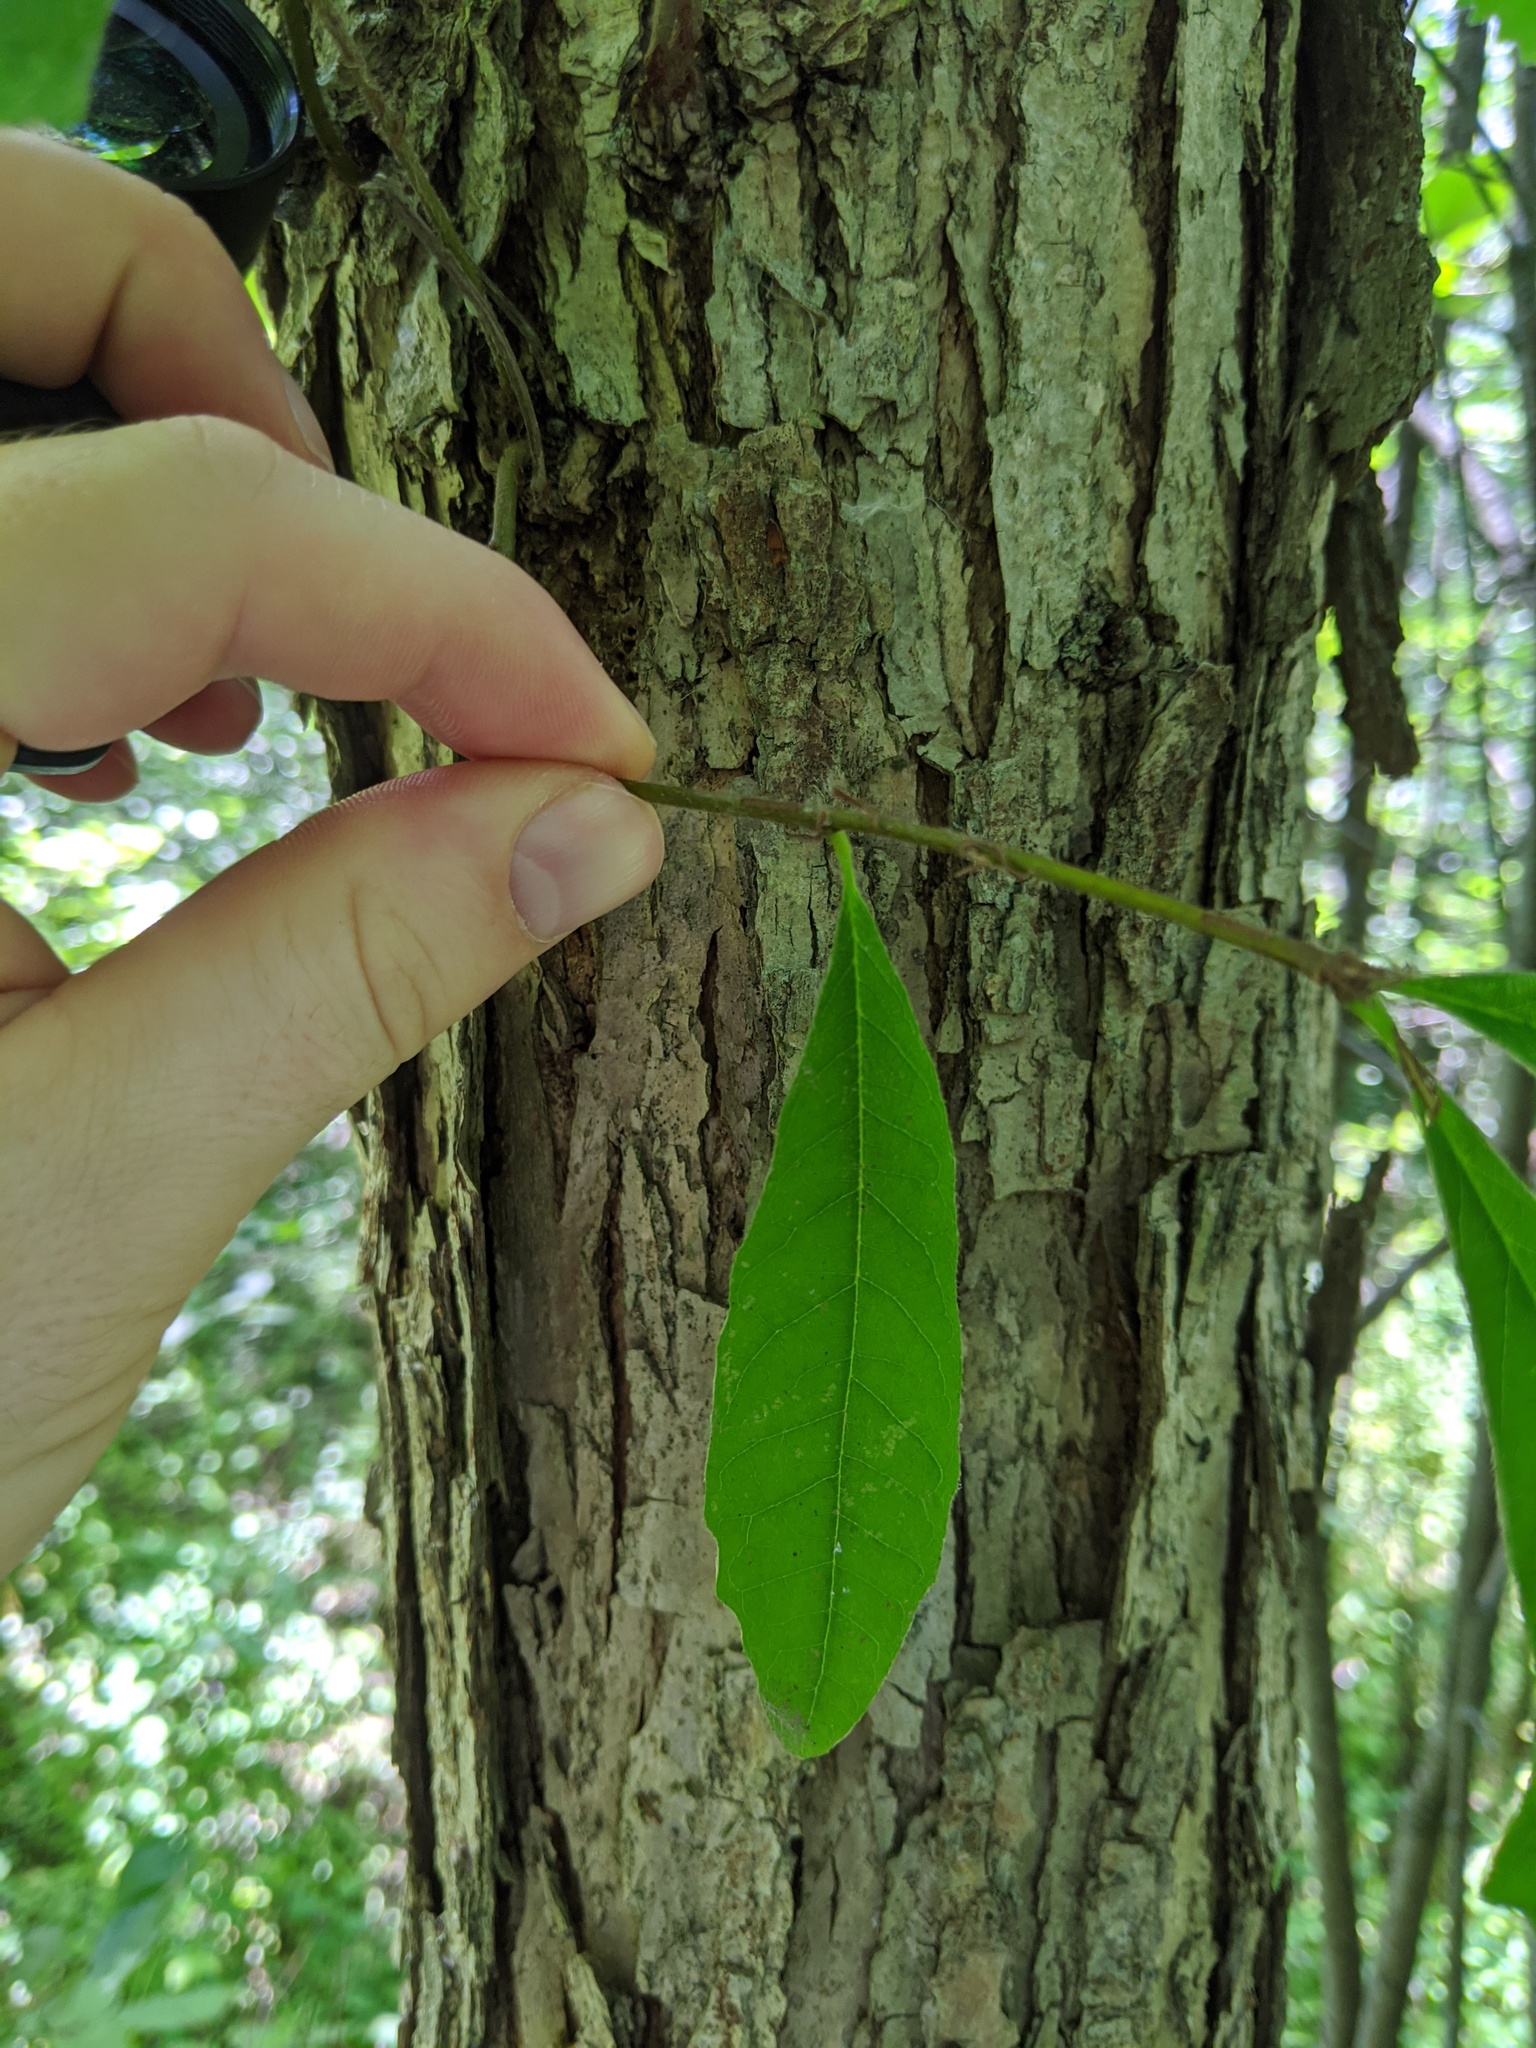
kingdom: Plantae
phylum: Tracheophyta
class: Magnoliopsida
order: Fagales
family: Fagaceae
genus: Quercus
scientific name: Quercus macrocarpa
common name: Bur oak
